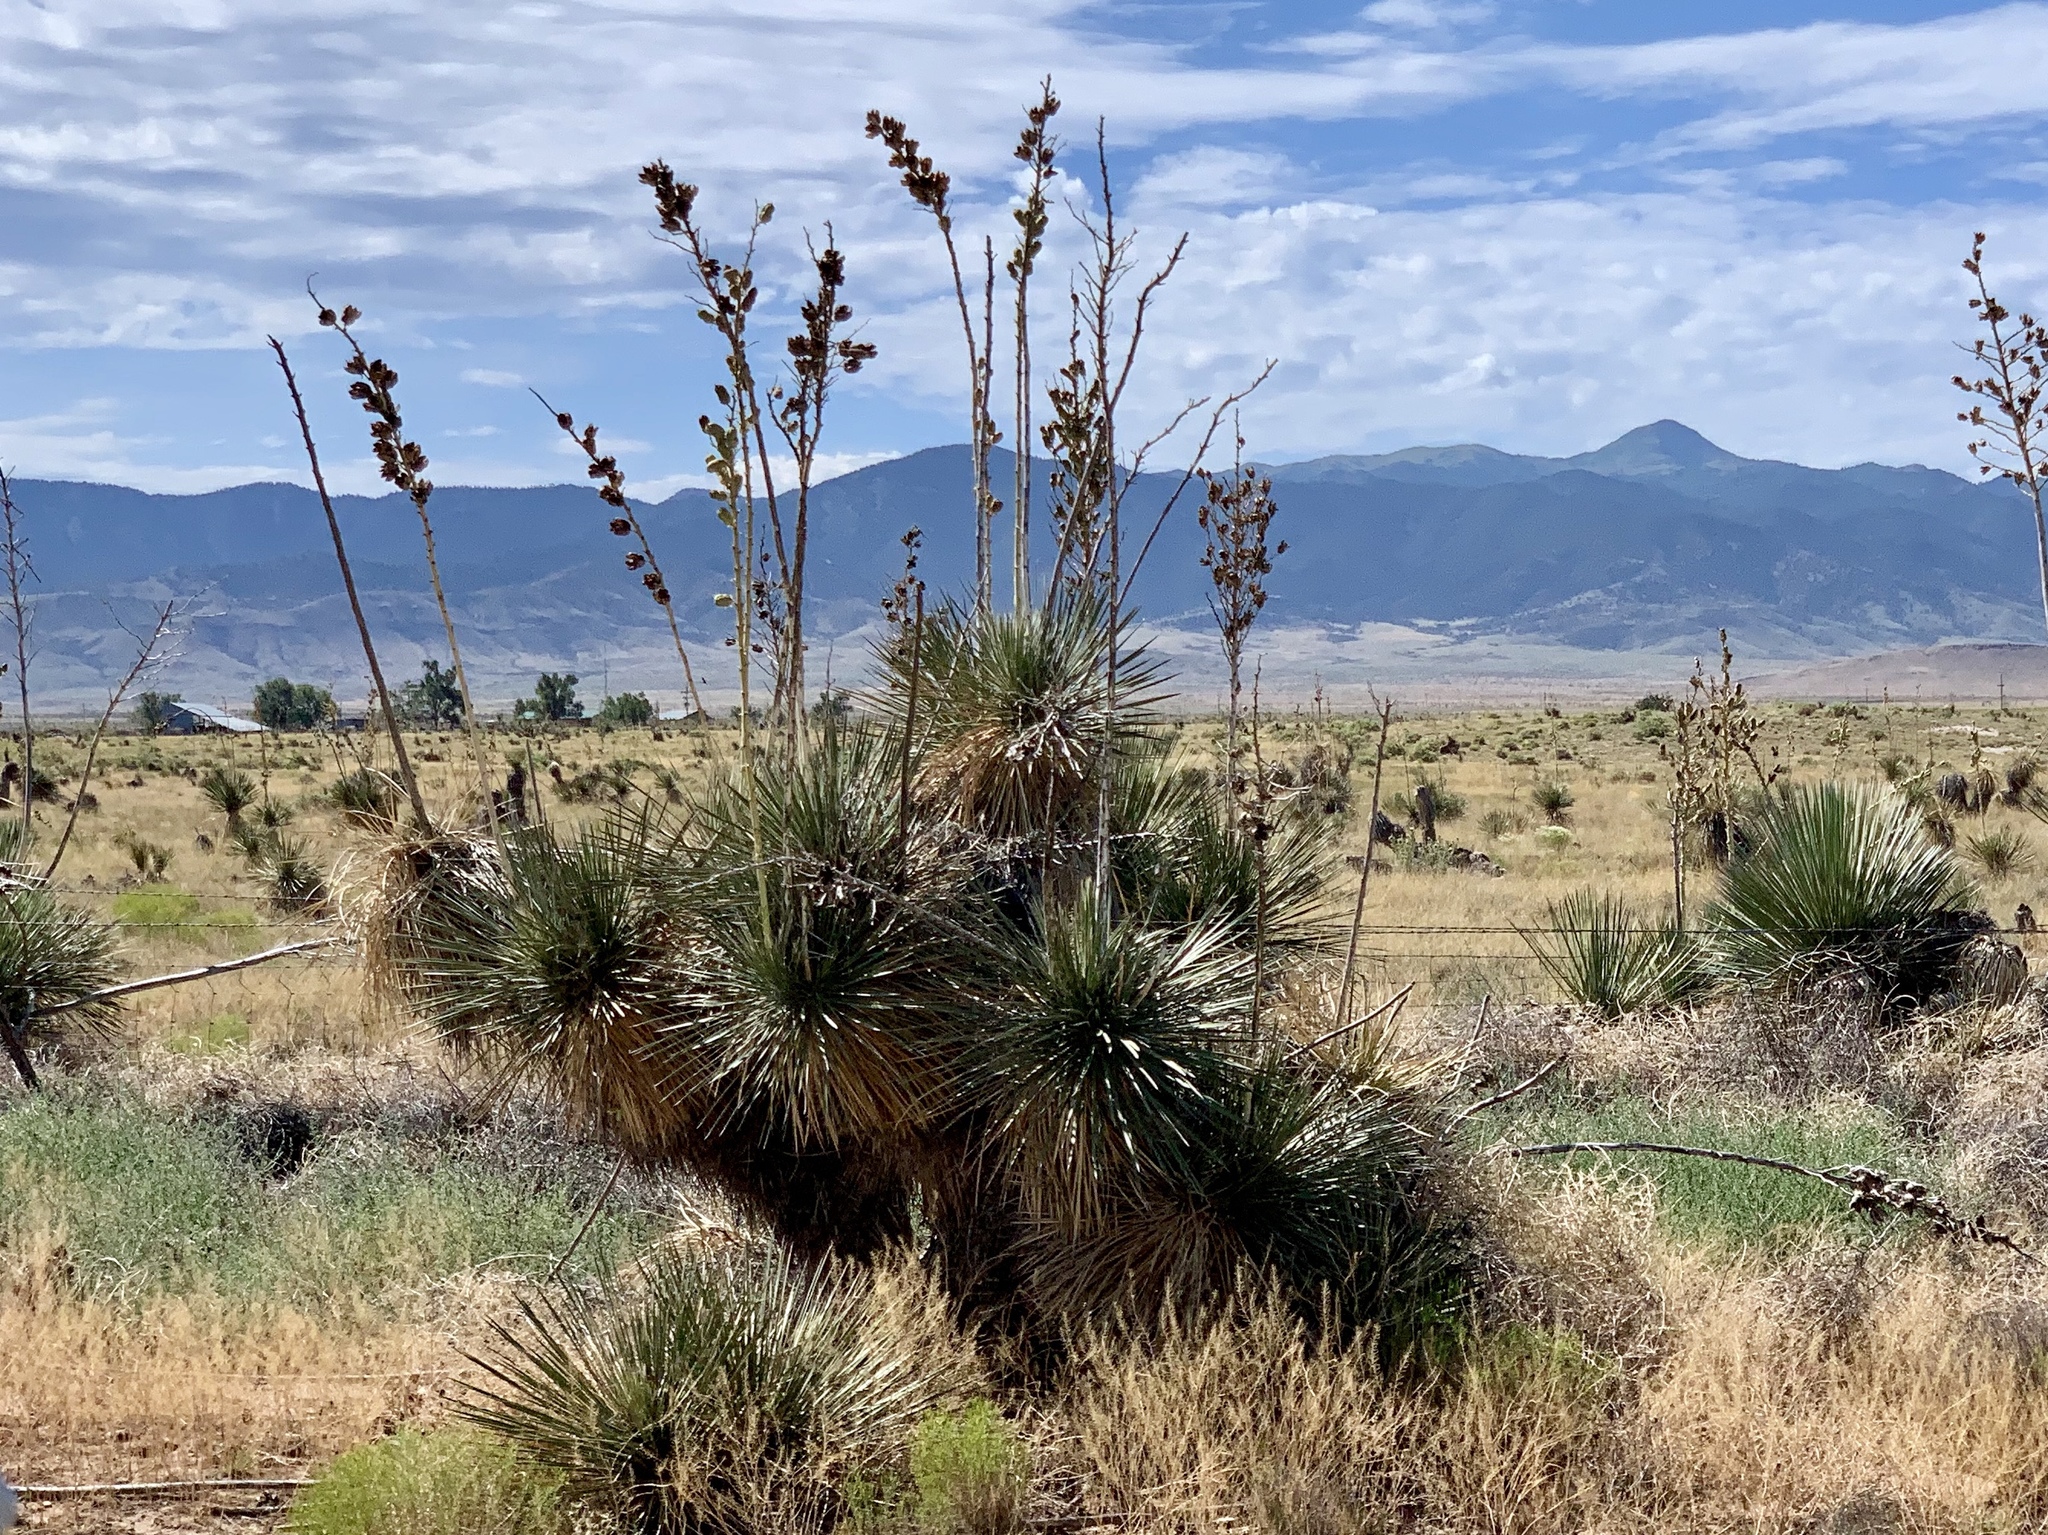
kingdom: Plantae
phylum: Tracheophyta
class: Liliopsida
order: Asparagales
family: Asparagaceae
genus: Yucca
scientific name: Yucca elata
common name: Palmella
